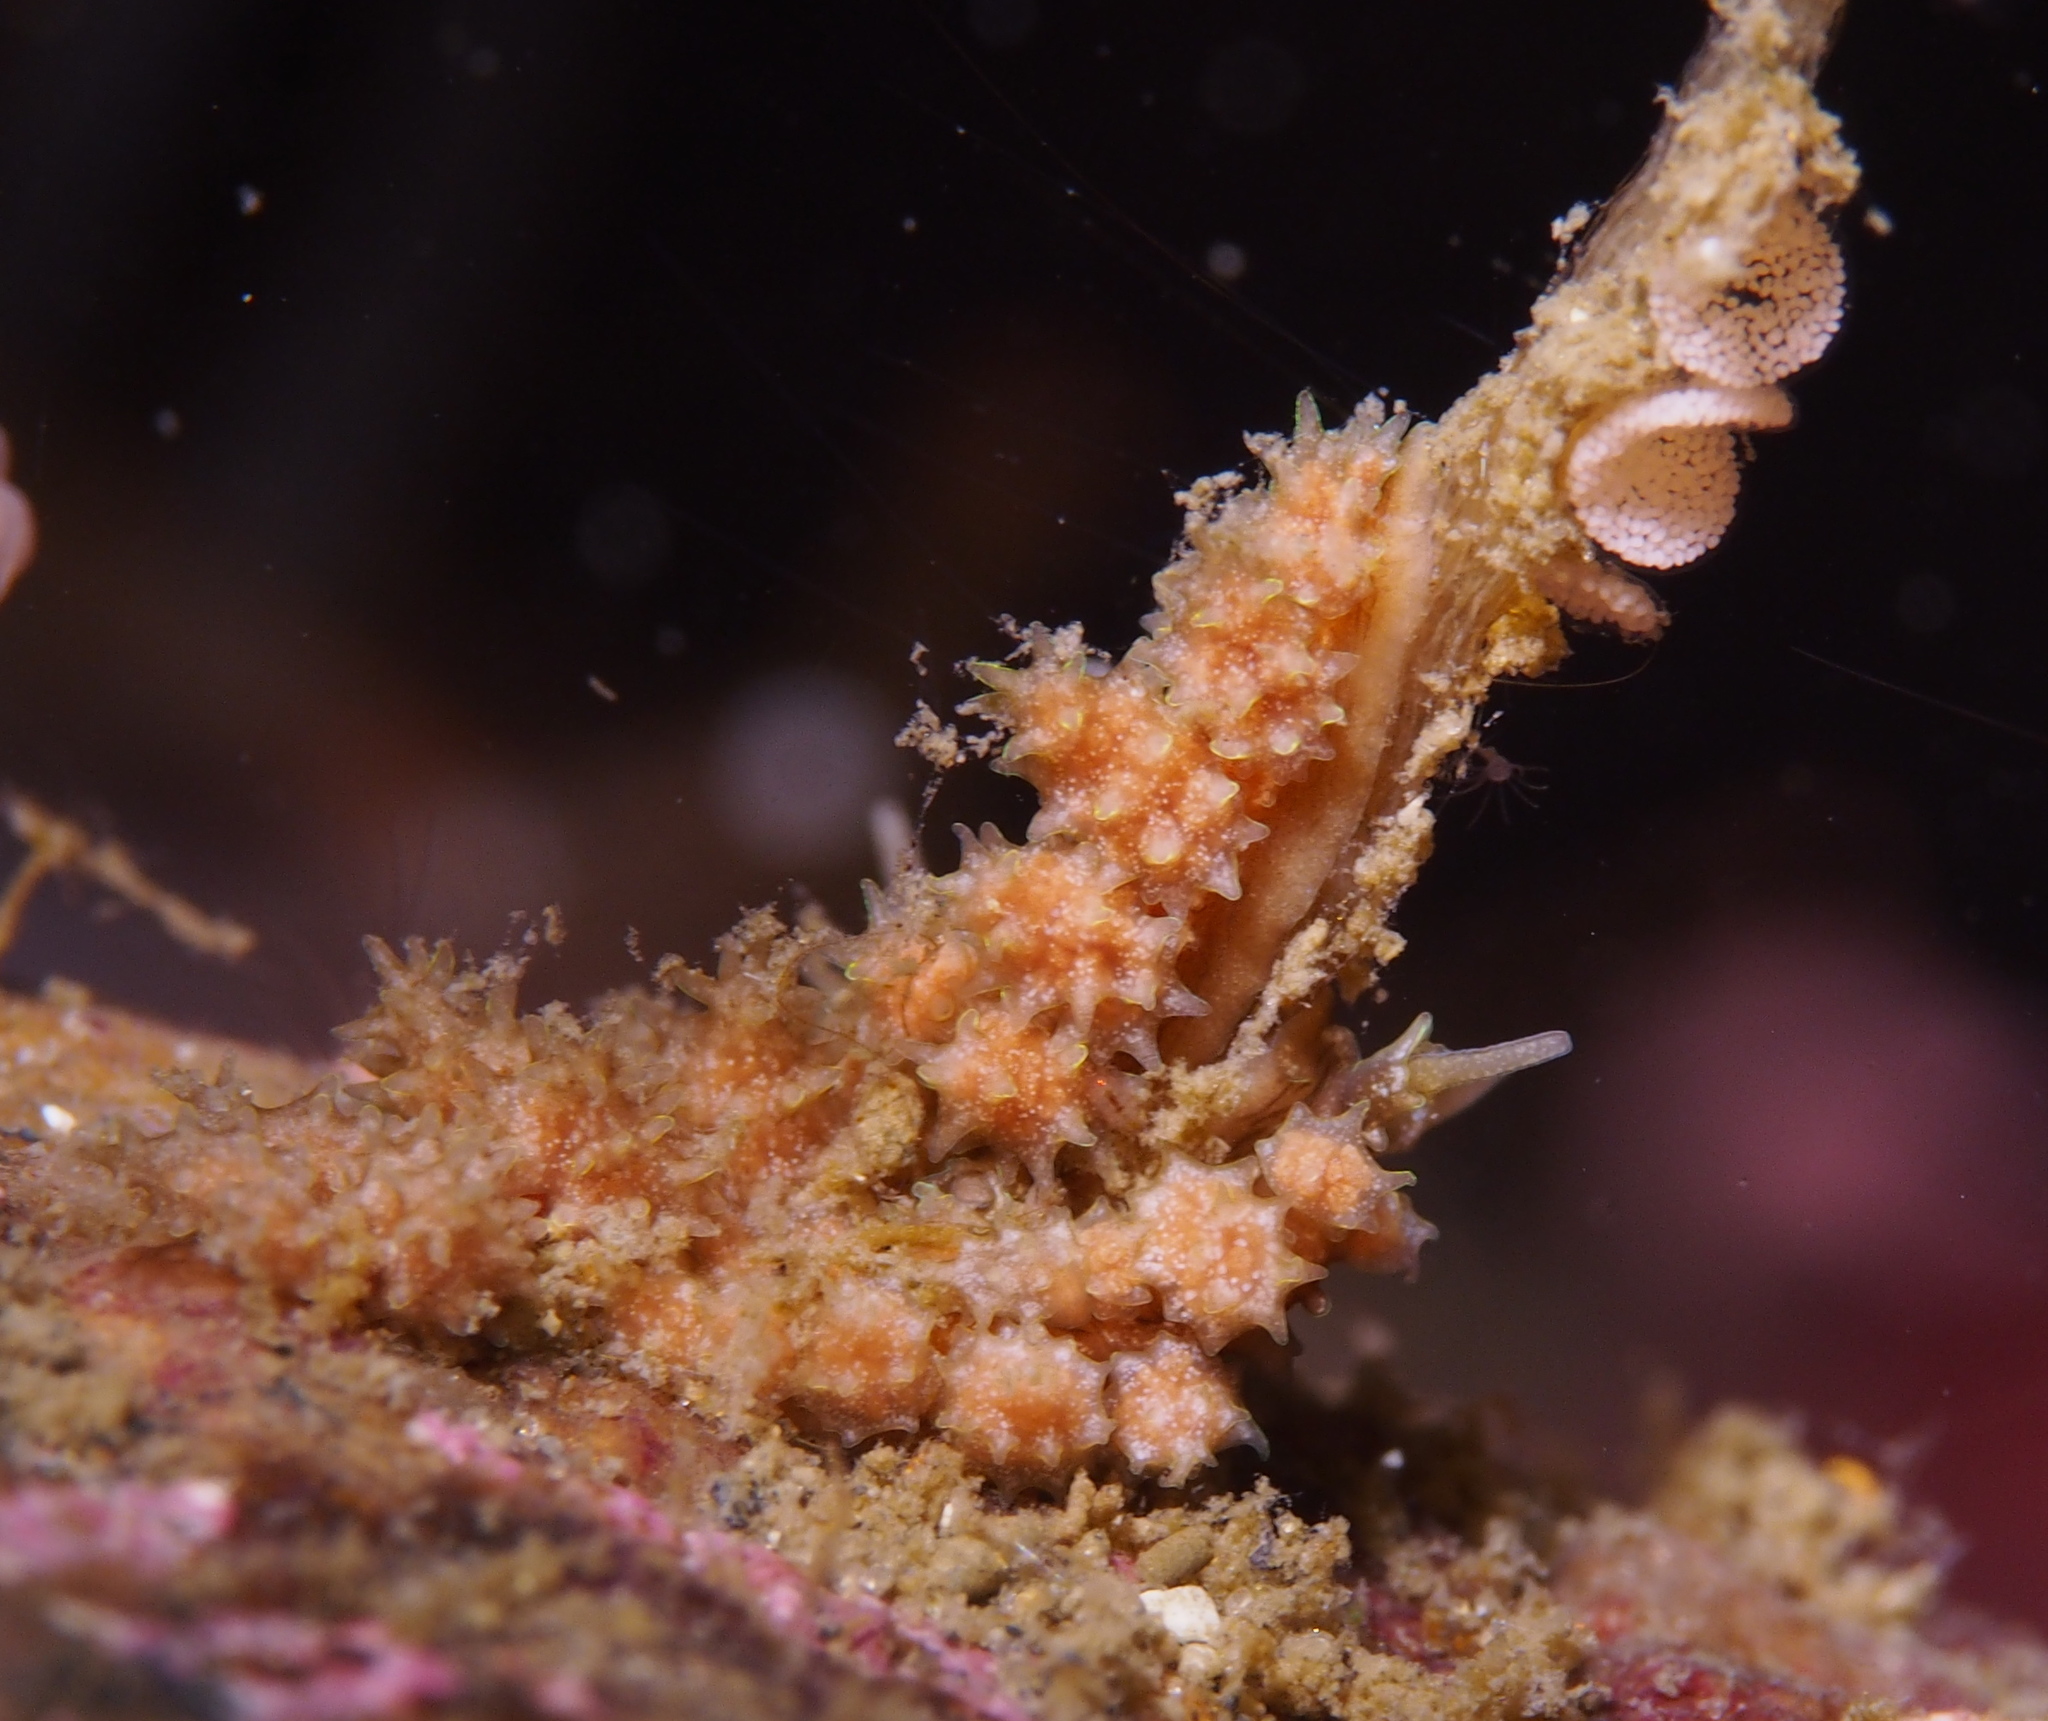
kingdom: Animalia
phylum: Mollusca
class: Gastropoda
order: Nudibranchia
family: Dotidae
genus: Doto
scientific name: Doto hystrix
